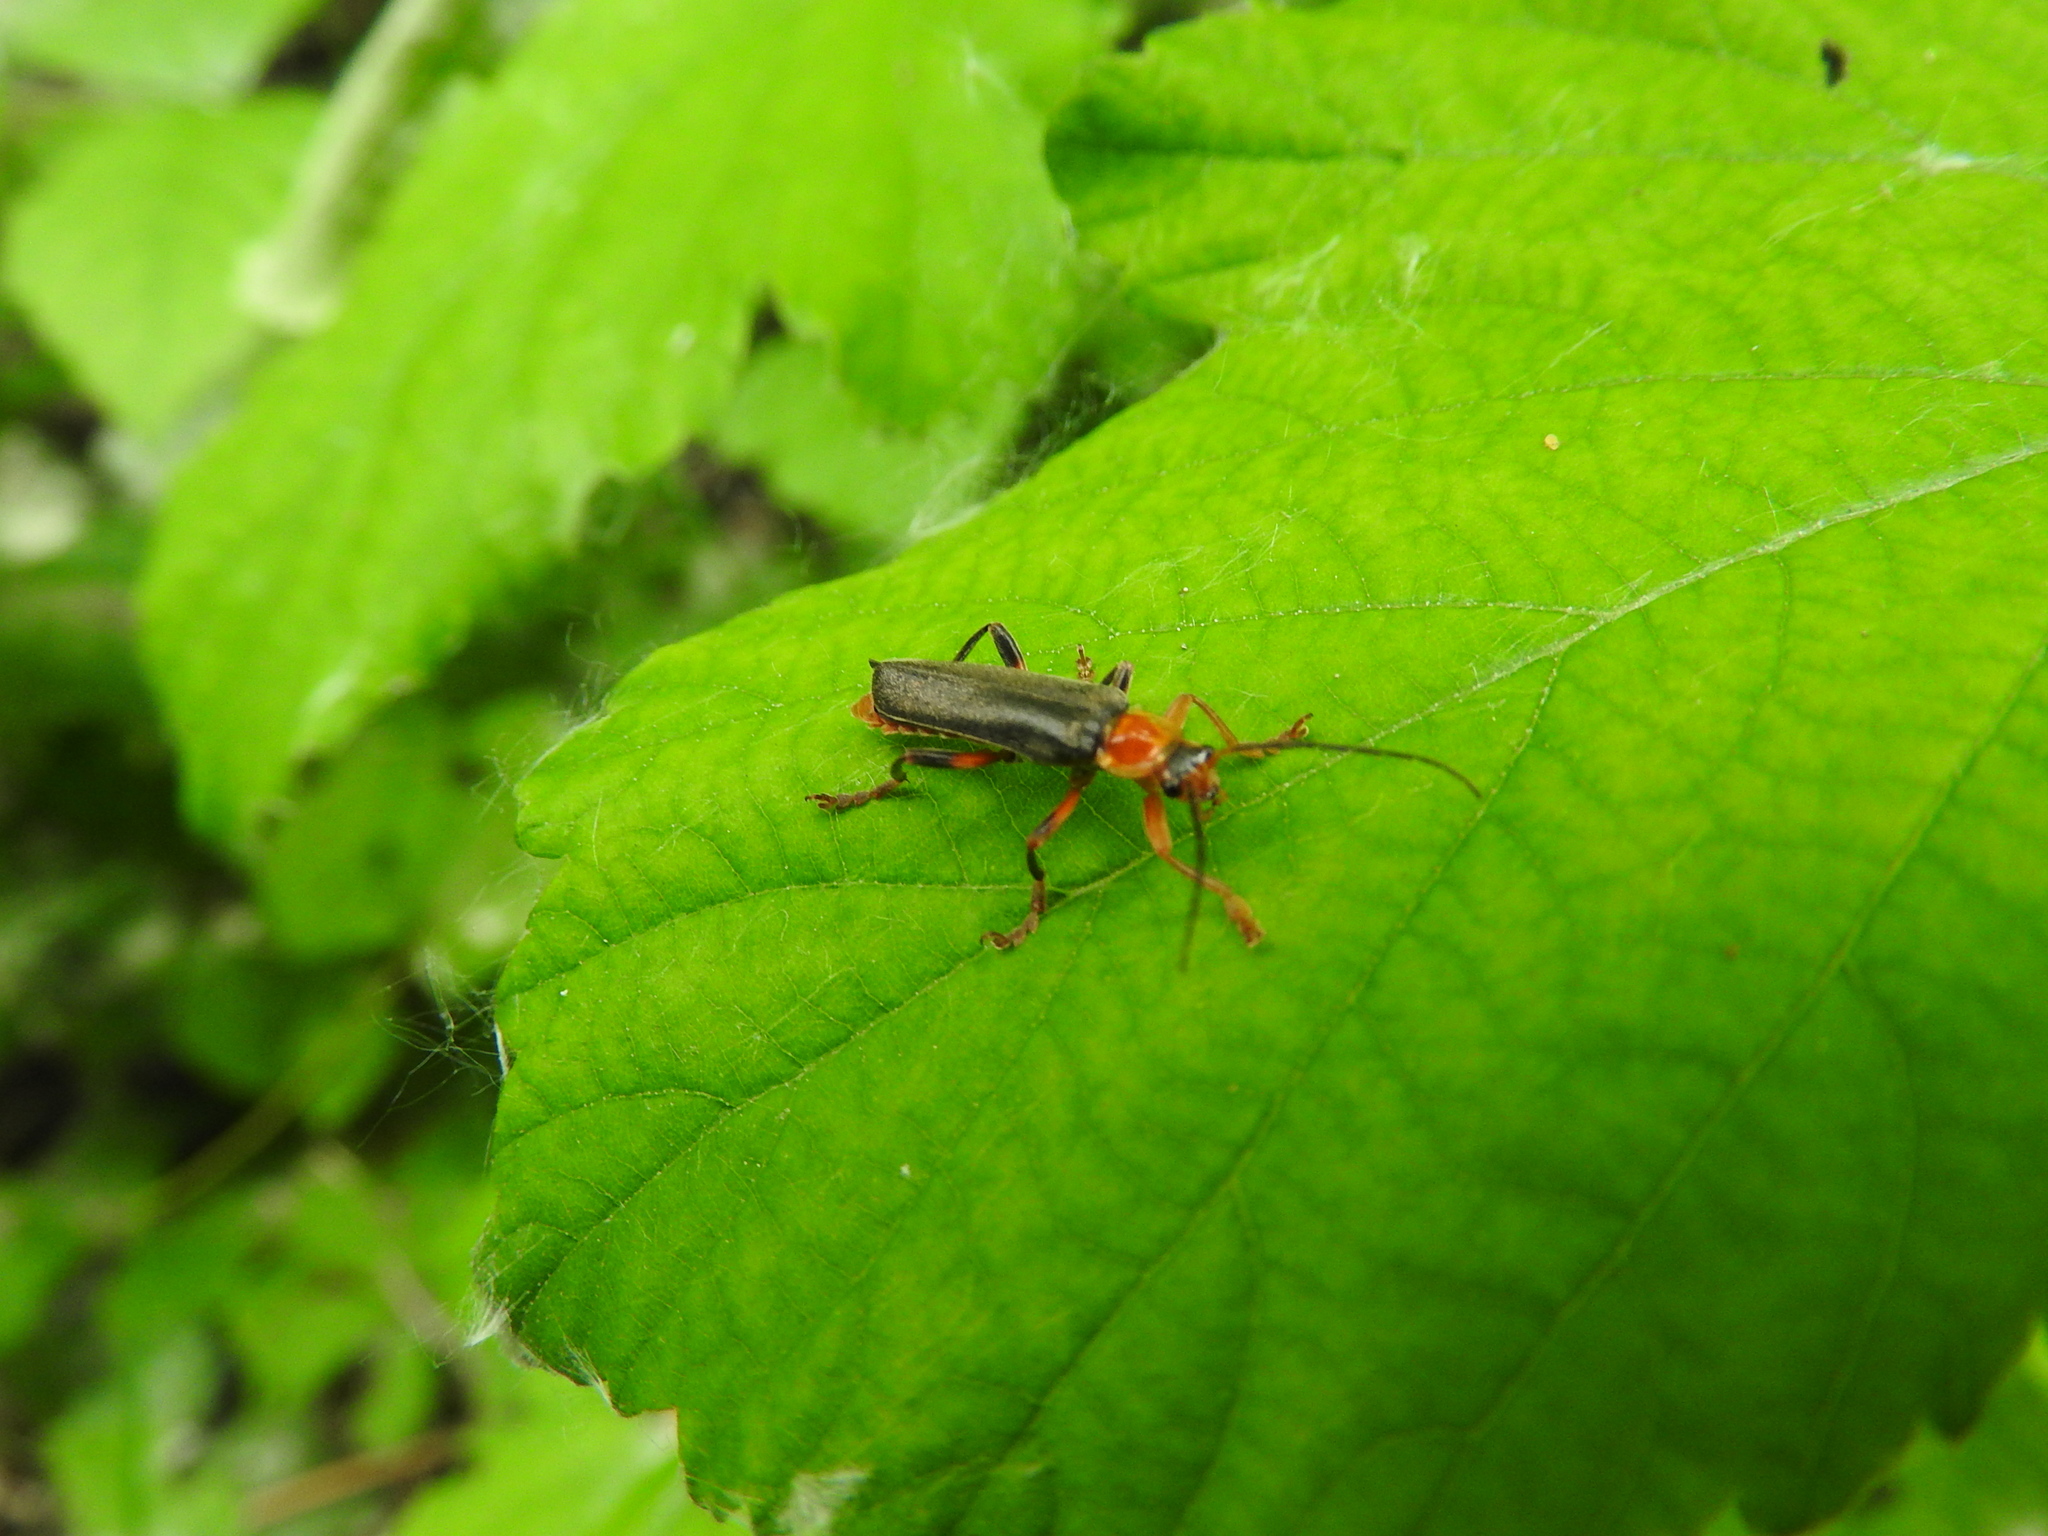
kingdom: Animalia
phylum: Arthropoda
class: Insecta
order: Coleoptera
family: Cantharidae
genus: Cantharis
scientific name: Cantharis livida
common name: Livid soldier beetle
